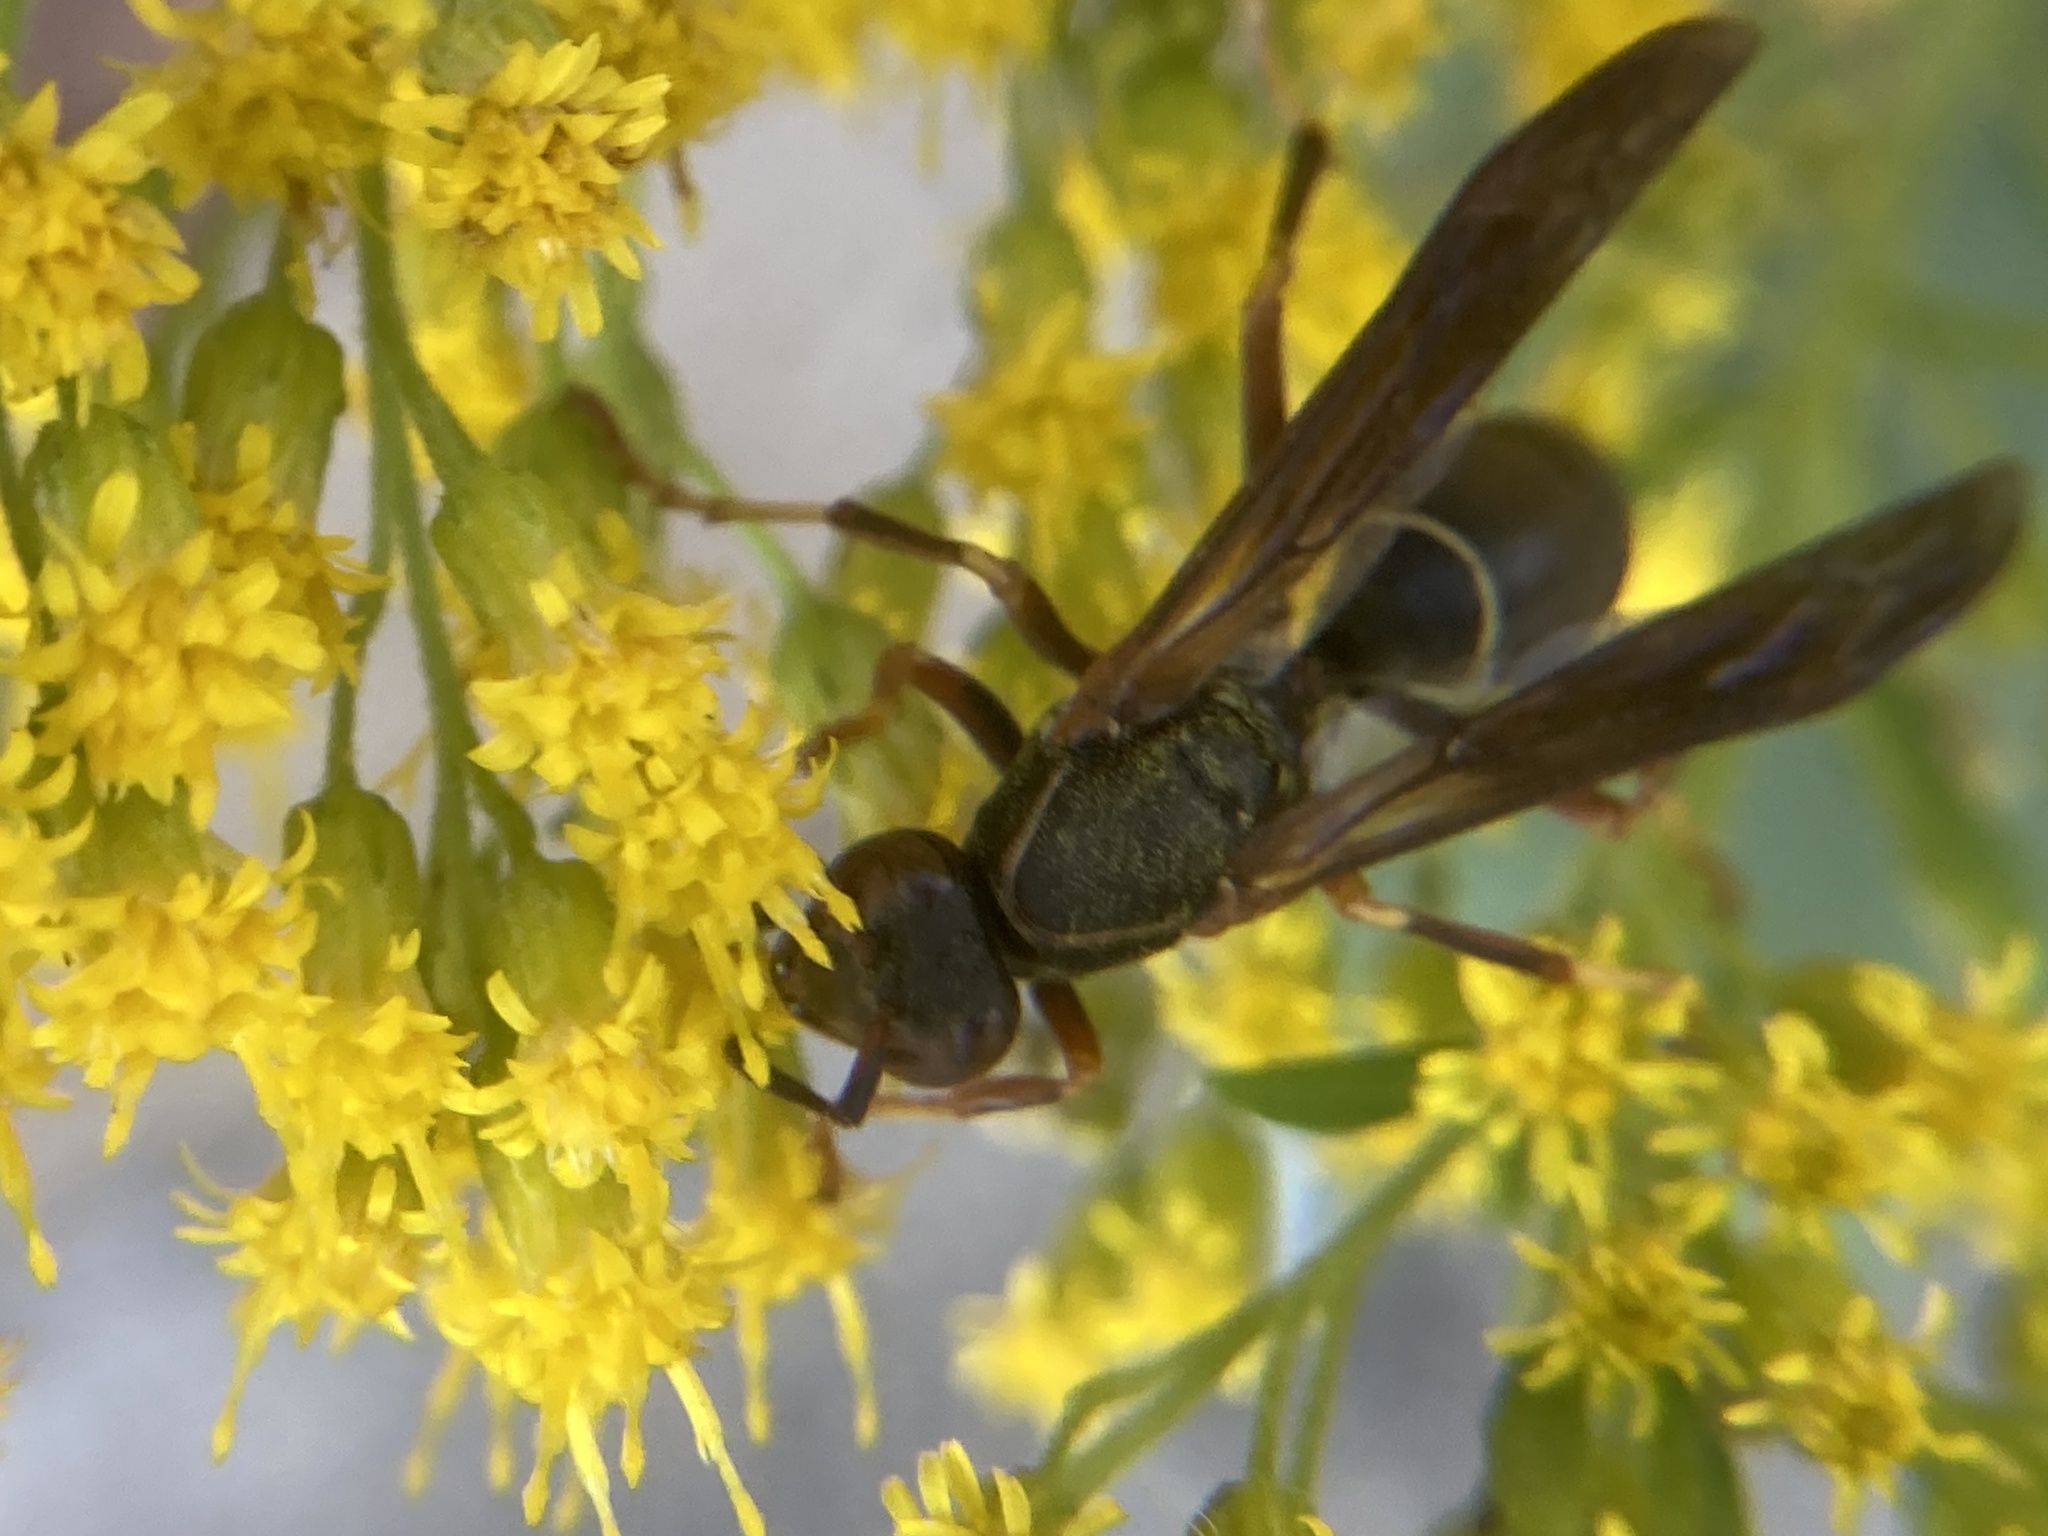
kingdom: Animalia
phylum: Arthropoda
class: Insecta
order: Hymenoptera
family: Eumenidae
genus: Polistes
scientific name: Polistes fuscatus
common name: Dark paper wasp
